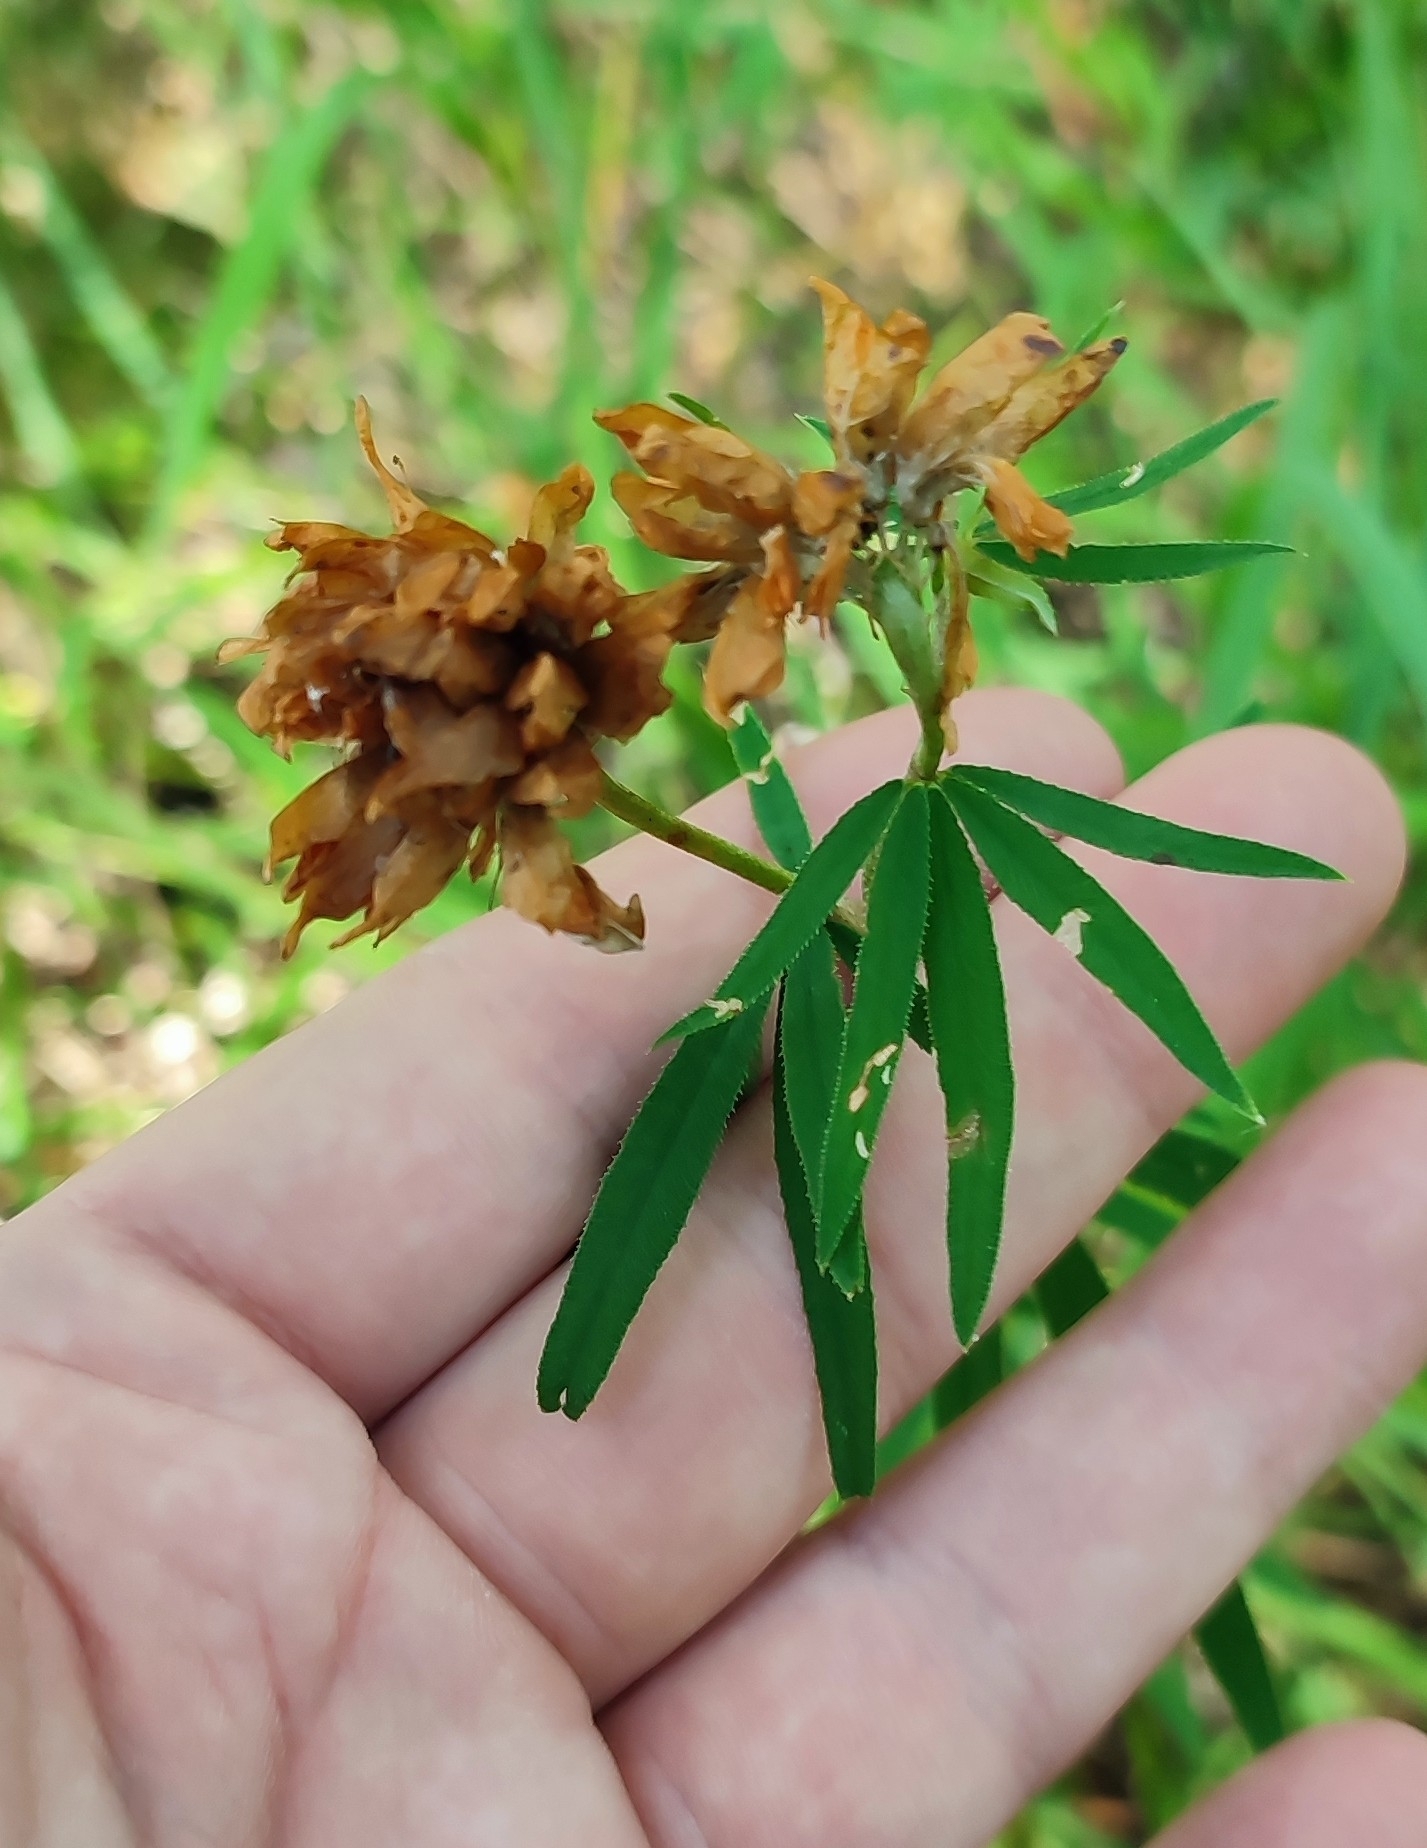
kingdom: Plantae
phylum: Tracheophyta
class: Magnoliopsida
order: Fabales
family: Fabaceae
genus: Trifolium
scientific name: Trifolium lupinaster
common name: Lupine clover
